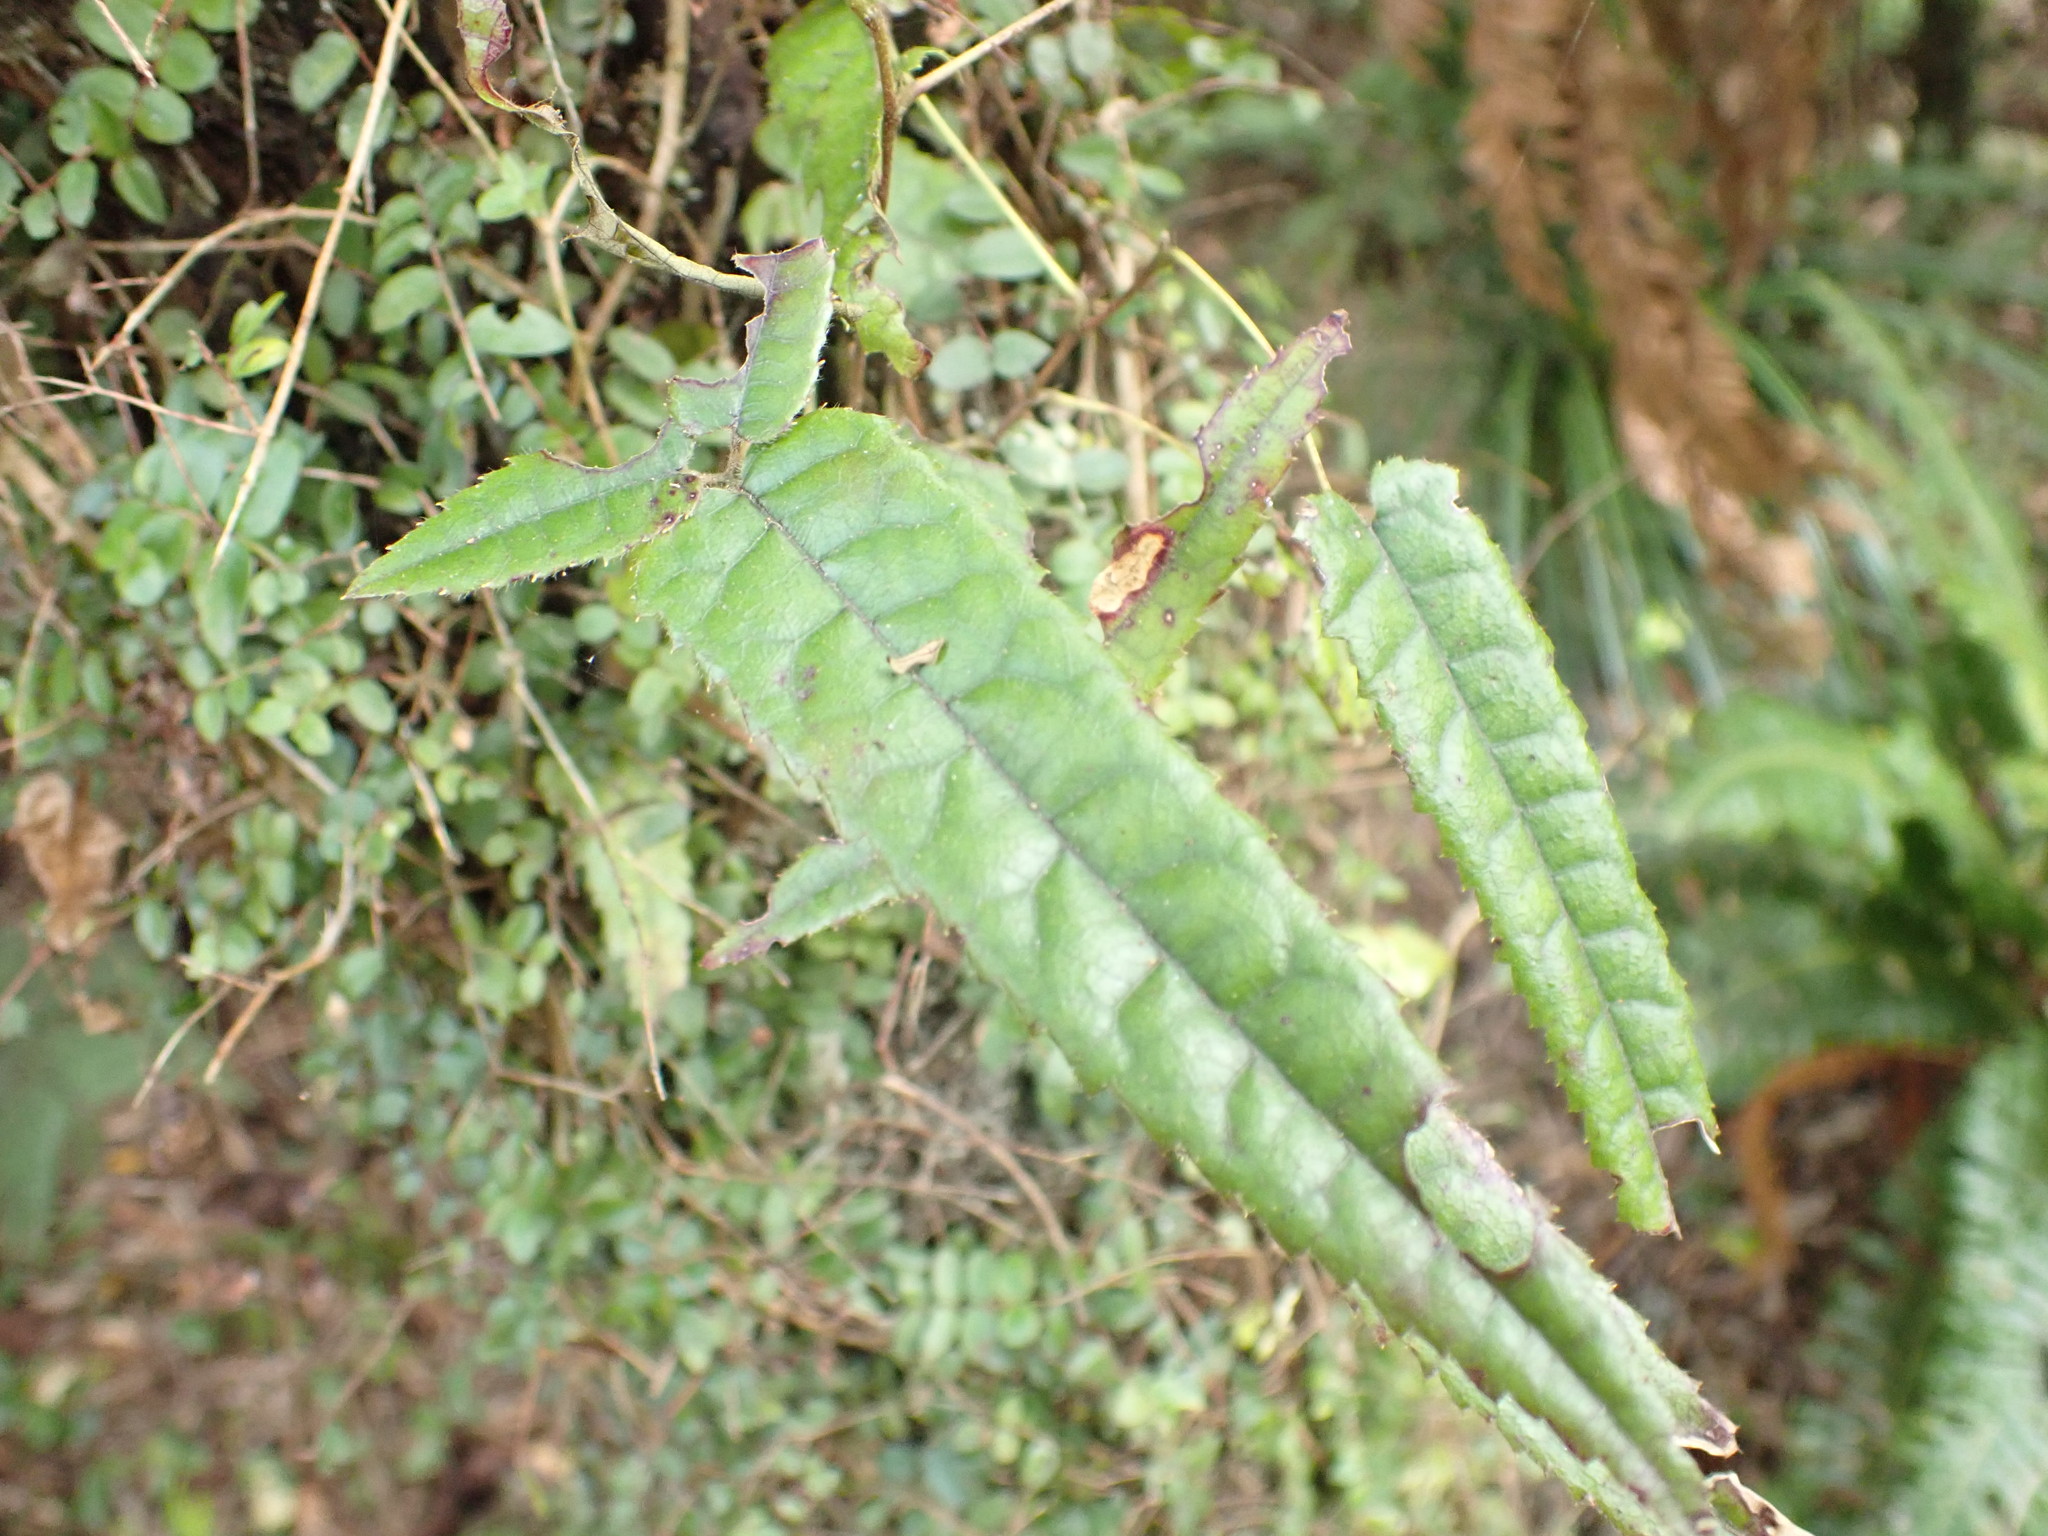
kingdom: Plantae
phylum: Tracheophyta
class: Magnoliopsida
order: Rosales
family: Rosaceae
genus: Rubus
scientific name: Rubus cissoides
